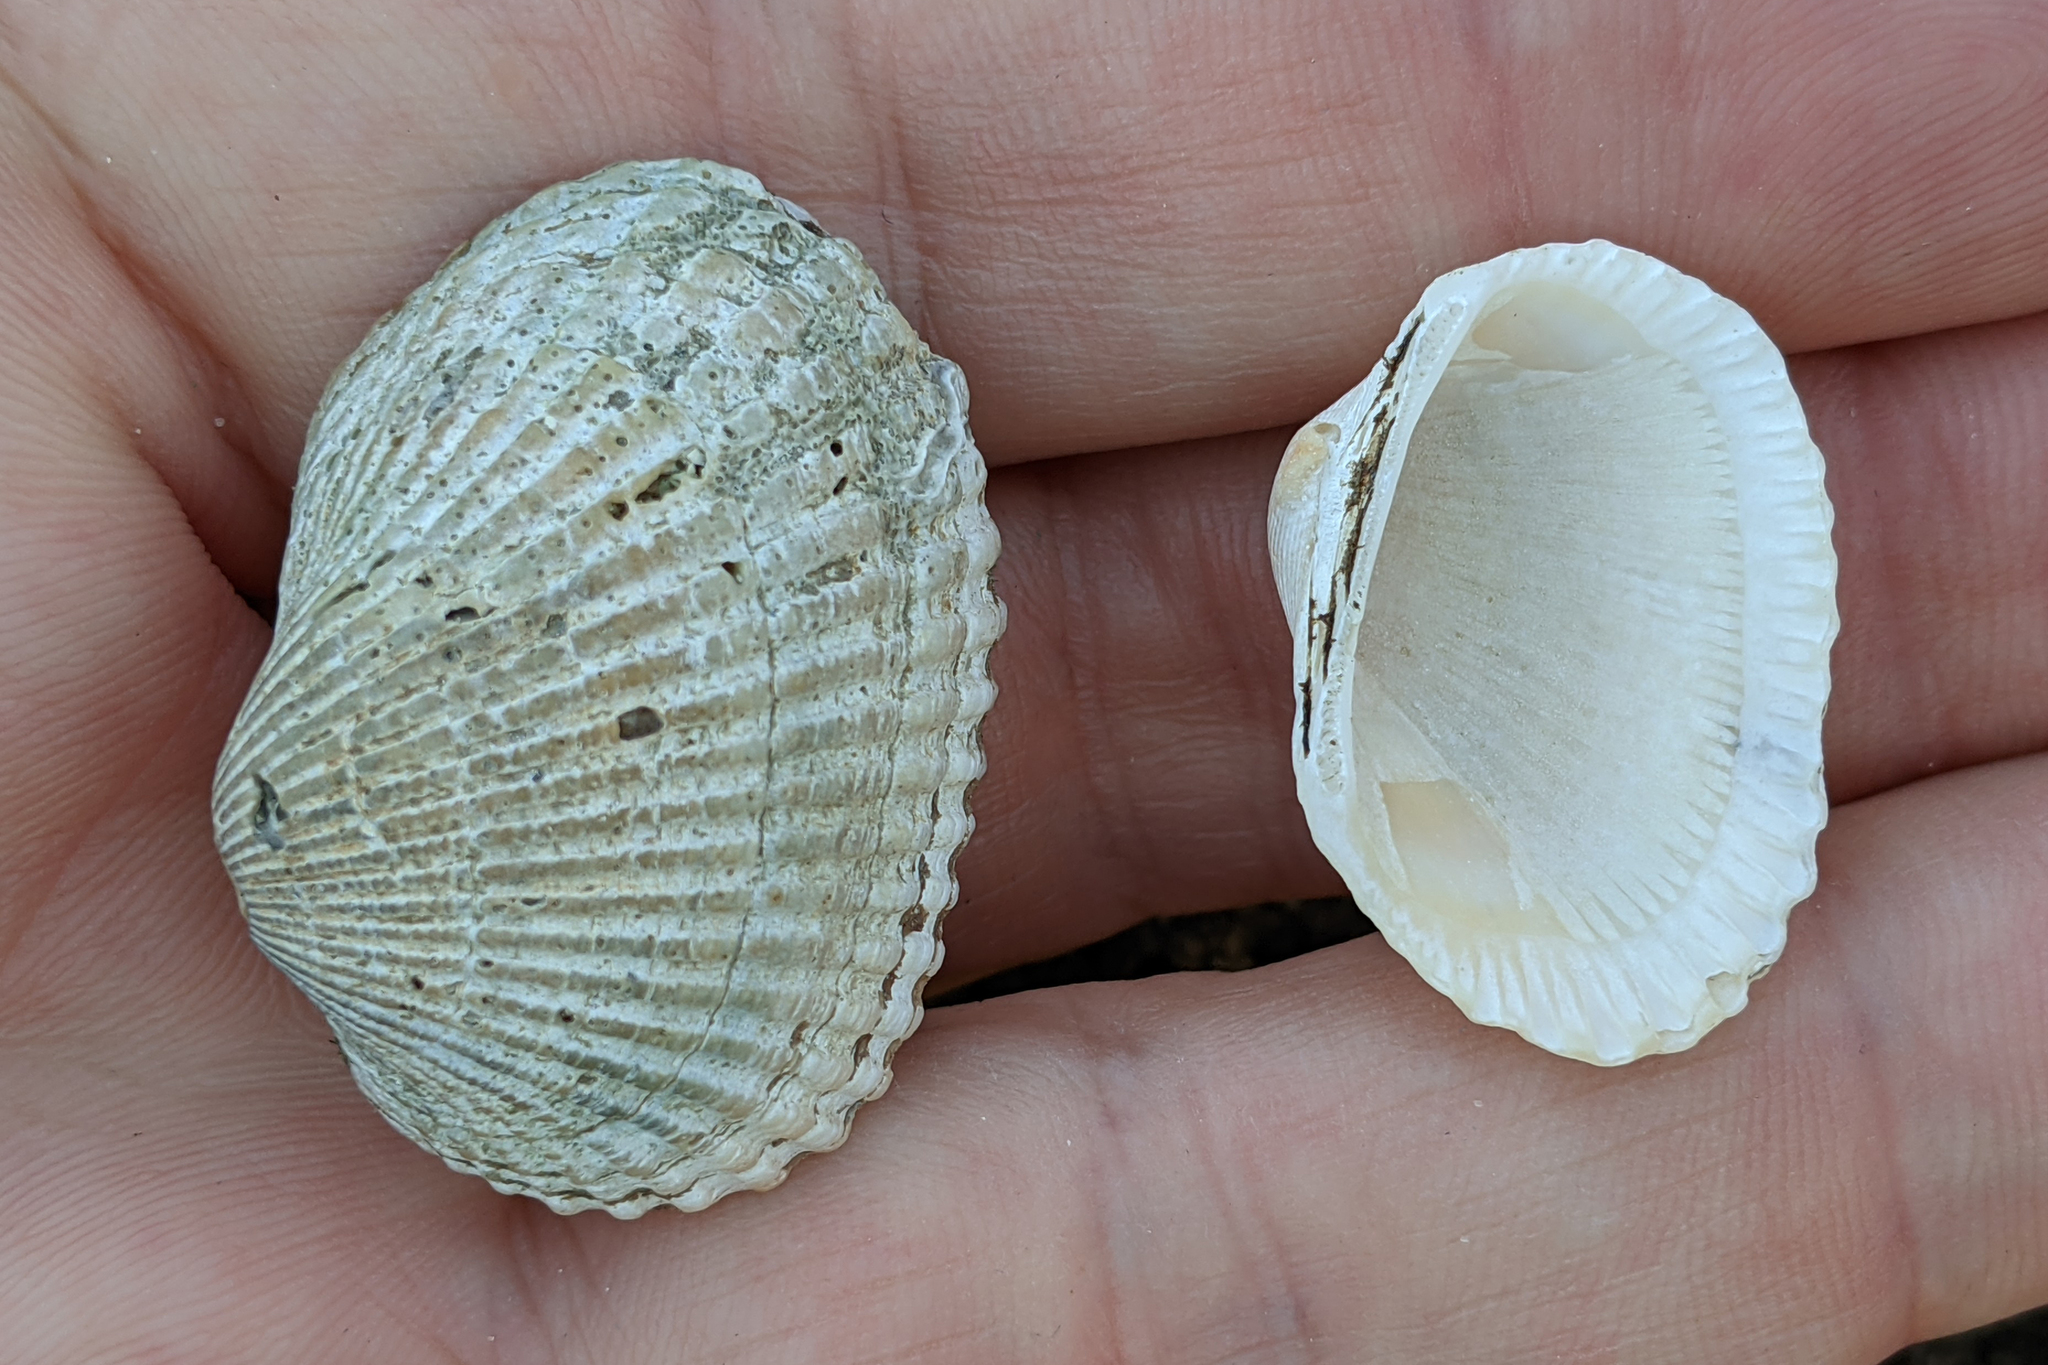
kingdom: Animalia
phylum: Mollusca
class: Bivalvia
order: Arcida
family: Arcidae
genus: Anadara
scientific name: Anadara transversa
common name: Transverse ark
